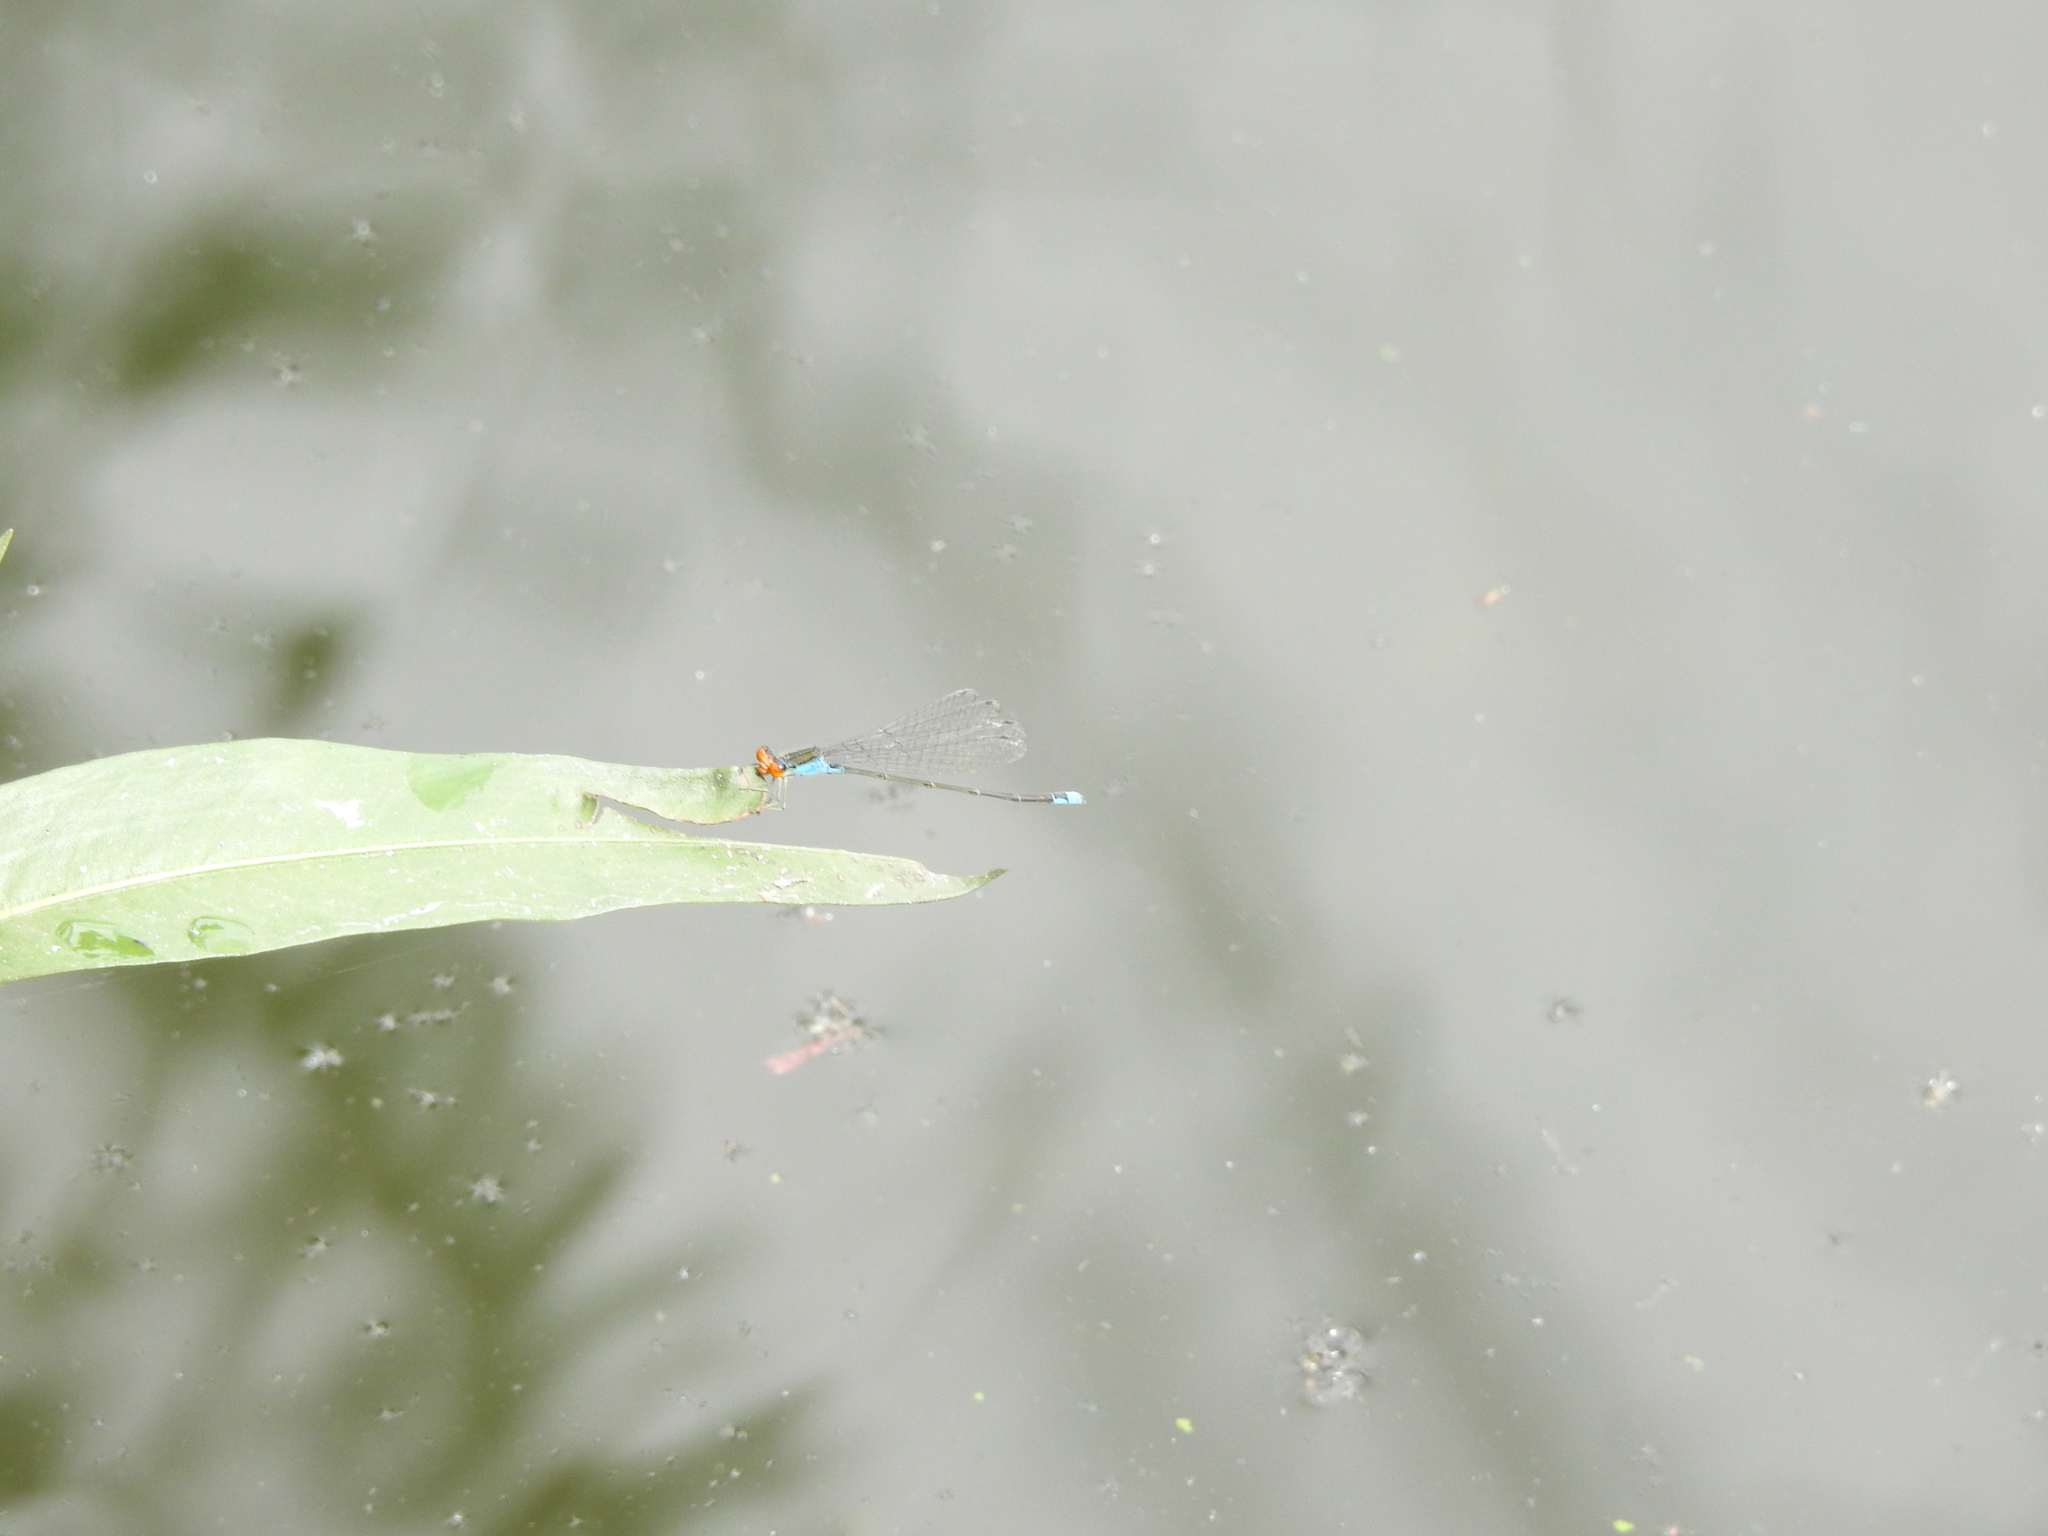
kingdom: Animalia
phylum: Arthropoda
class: Insecta
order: Odonata
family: Coenagrionidae
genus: Pseudagrion
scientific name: Pseudagrion rubriceps
